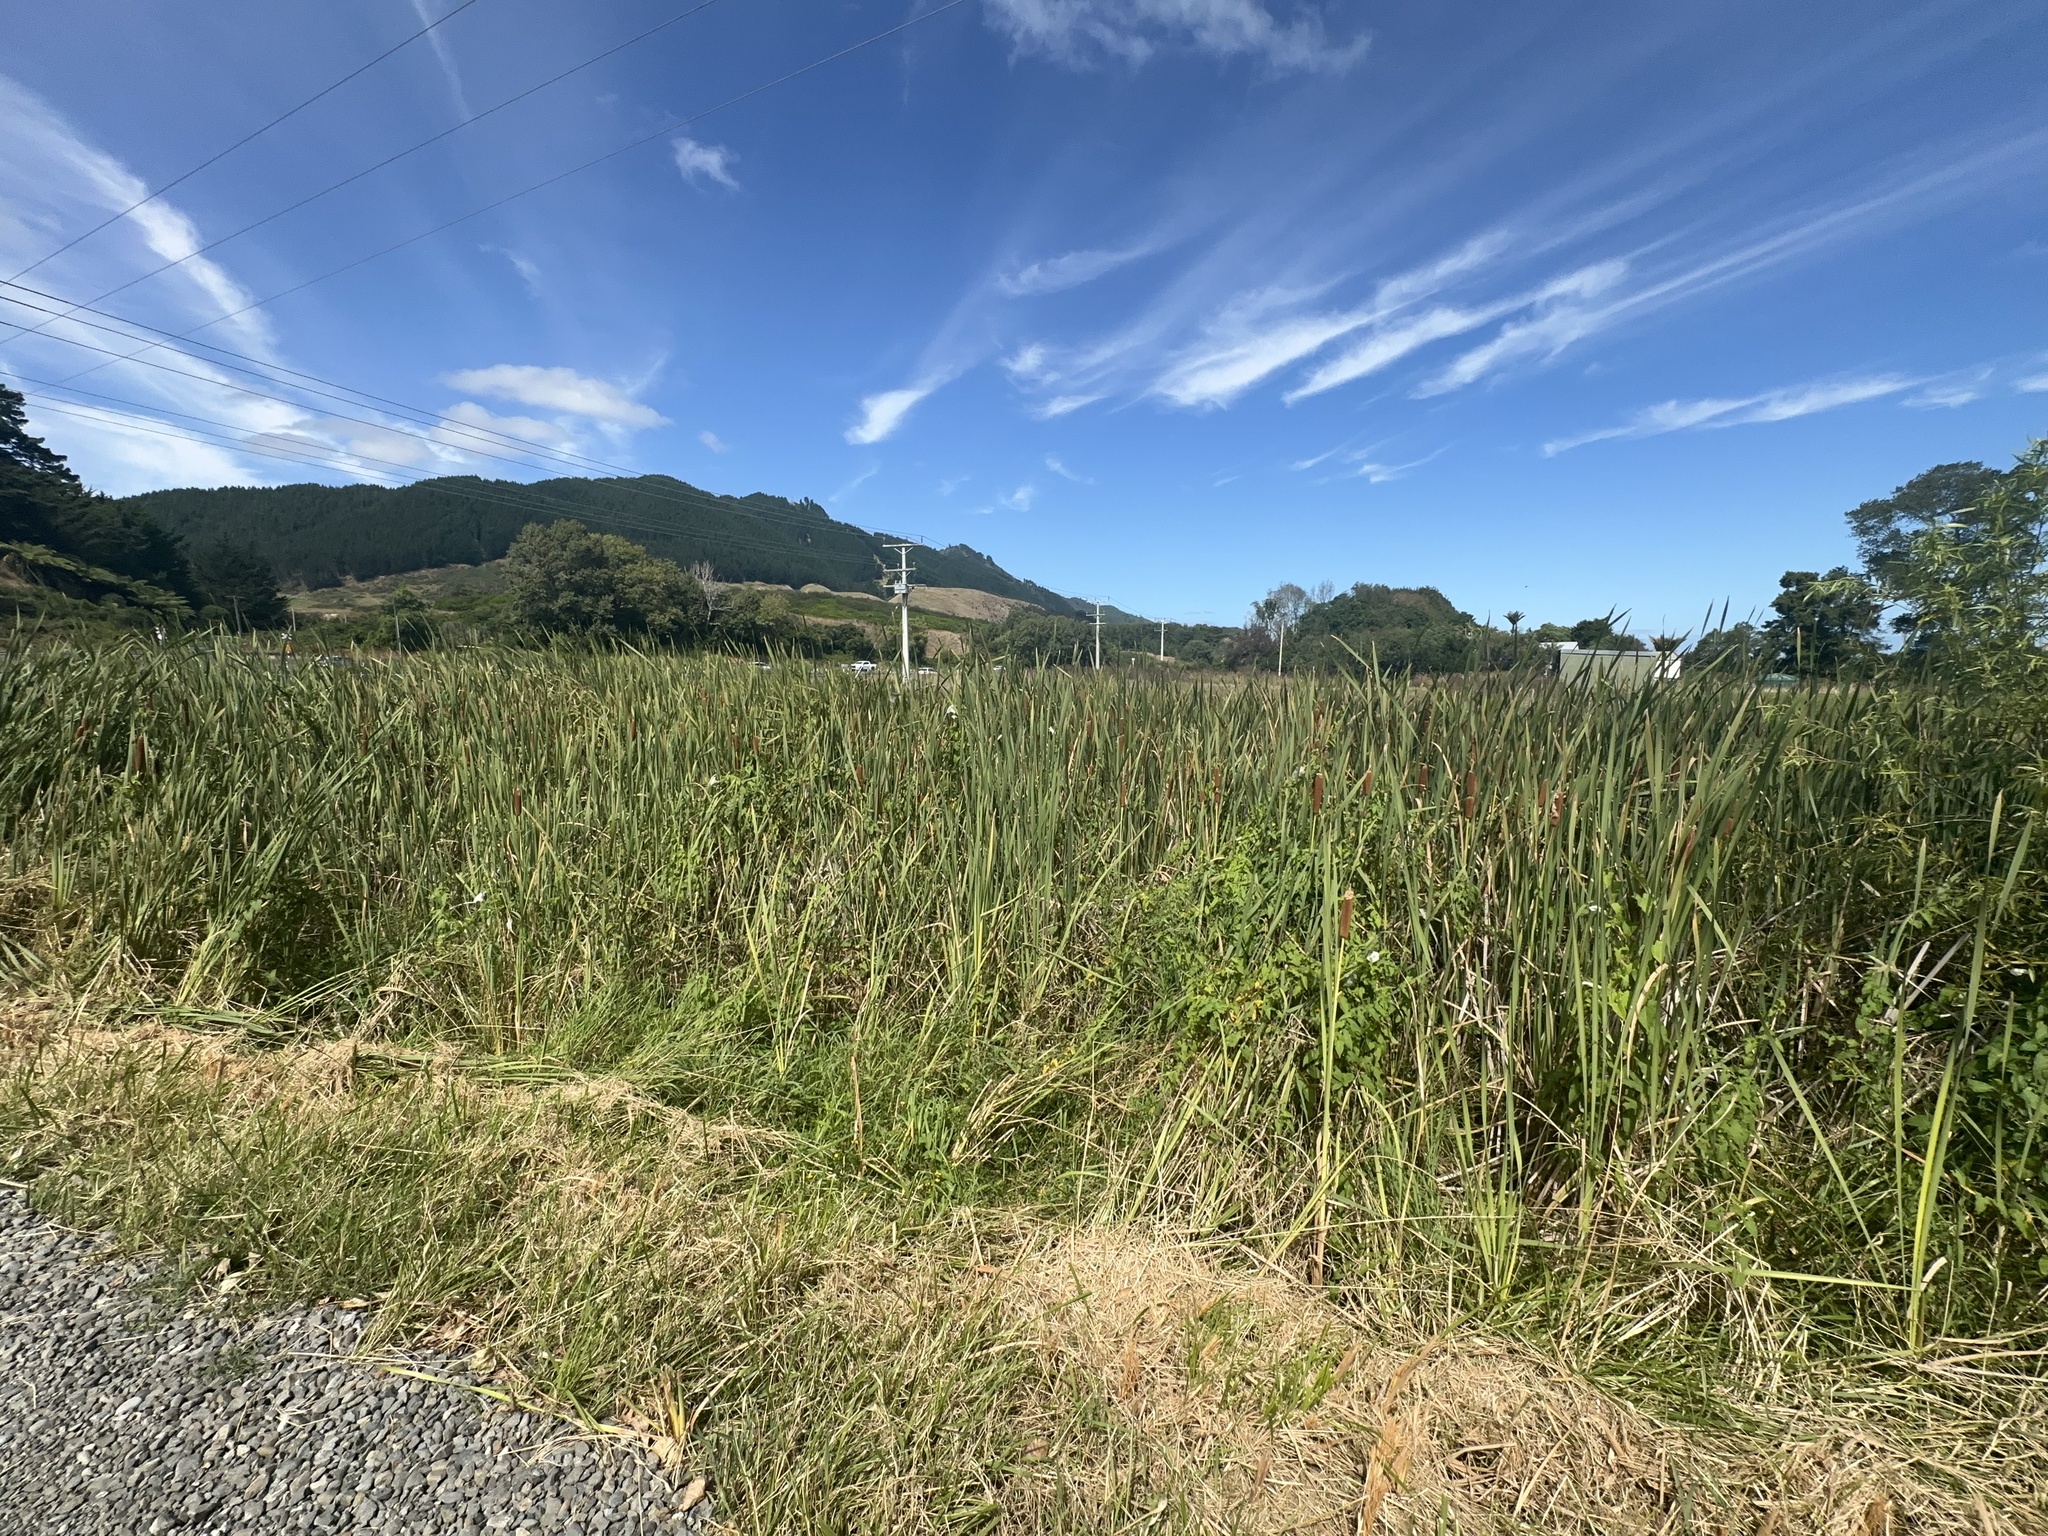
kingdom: Plantae
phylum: Tracheophyta
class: Liliopsida
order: Poales
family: Typhaceae
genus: Typha
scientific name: Typha orientalis
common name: Bullrush
